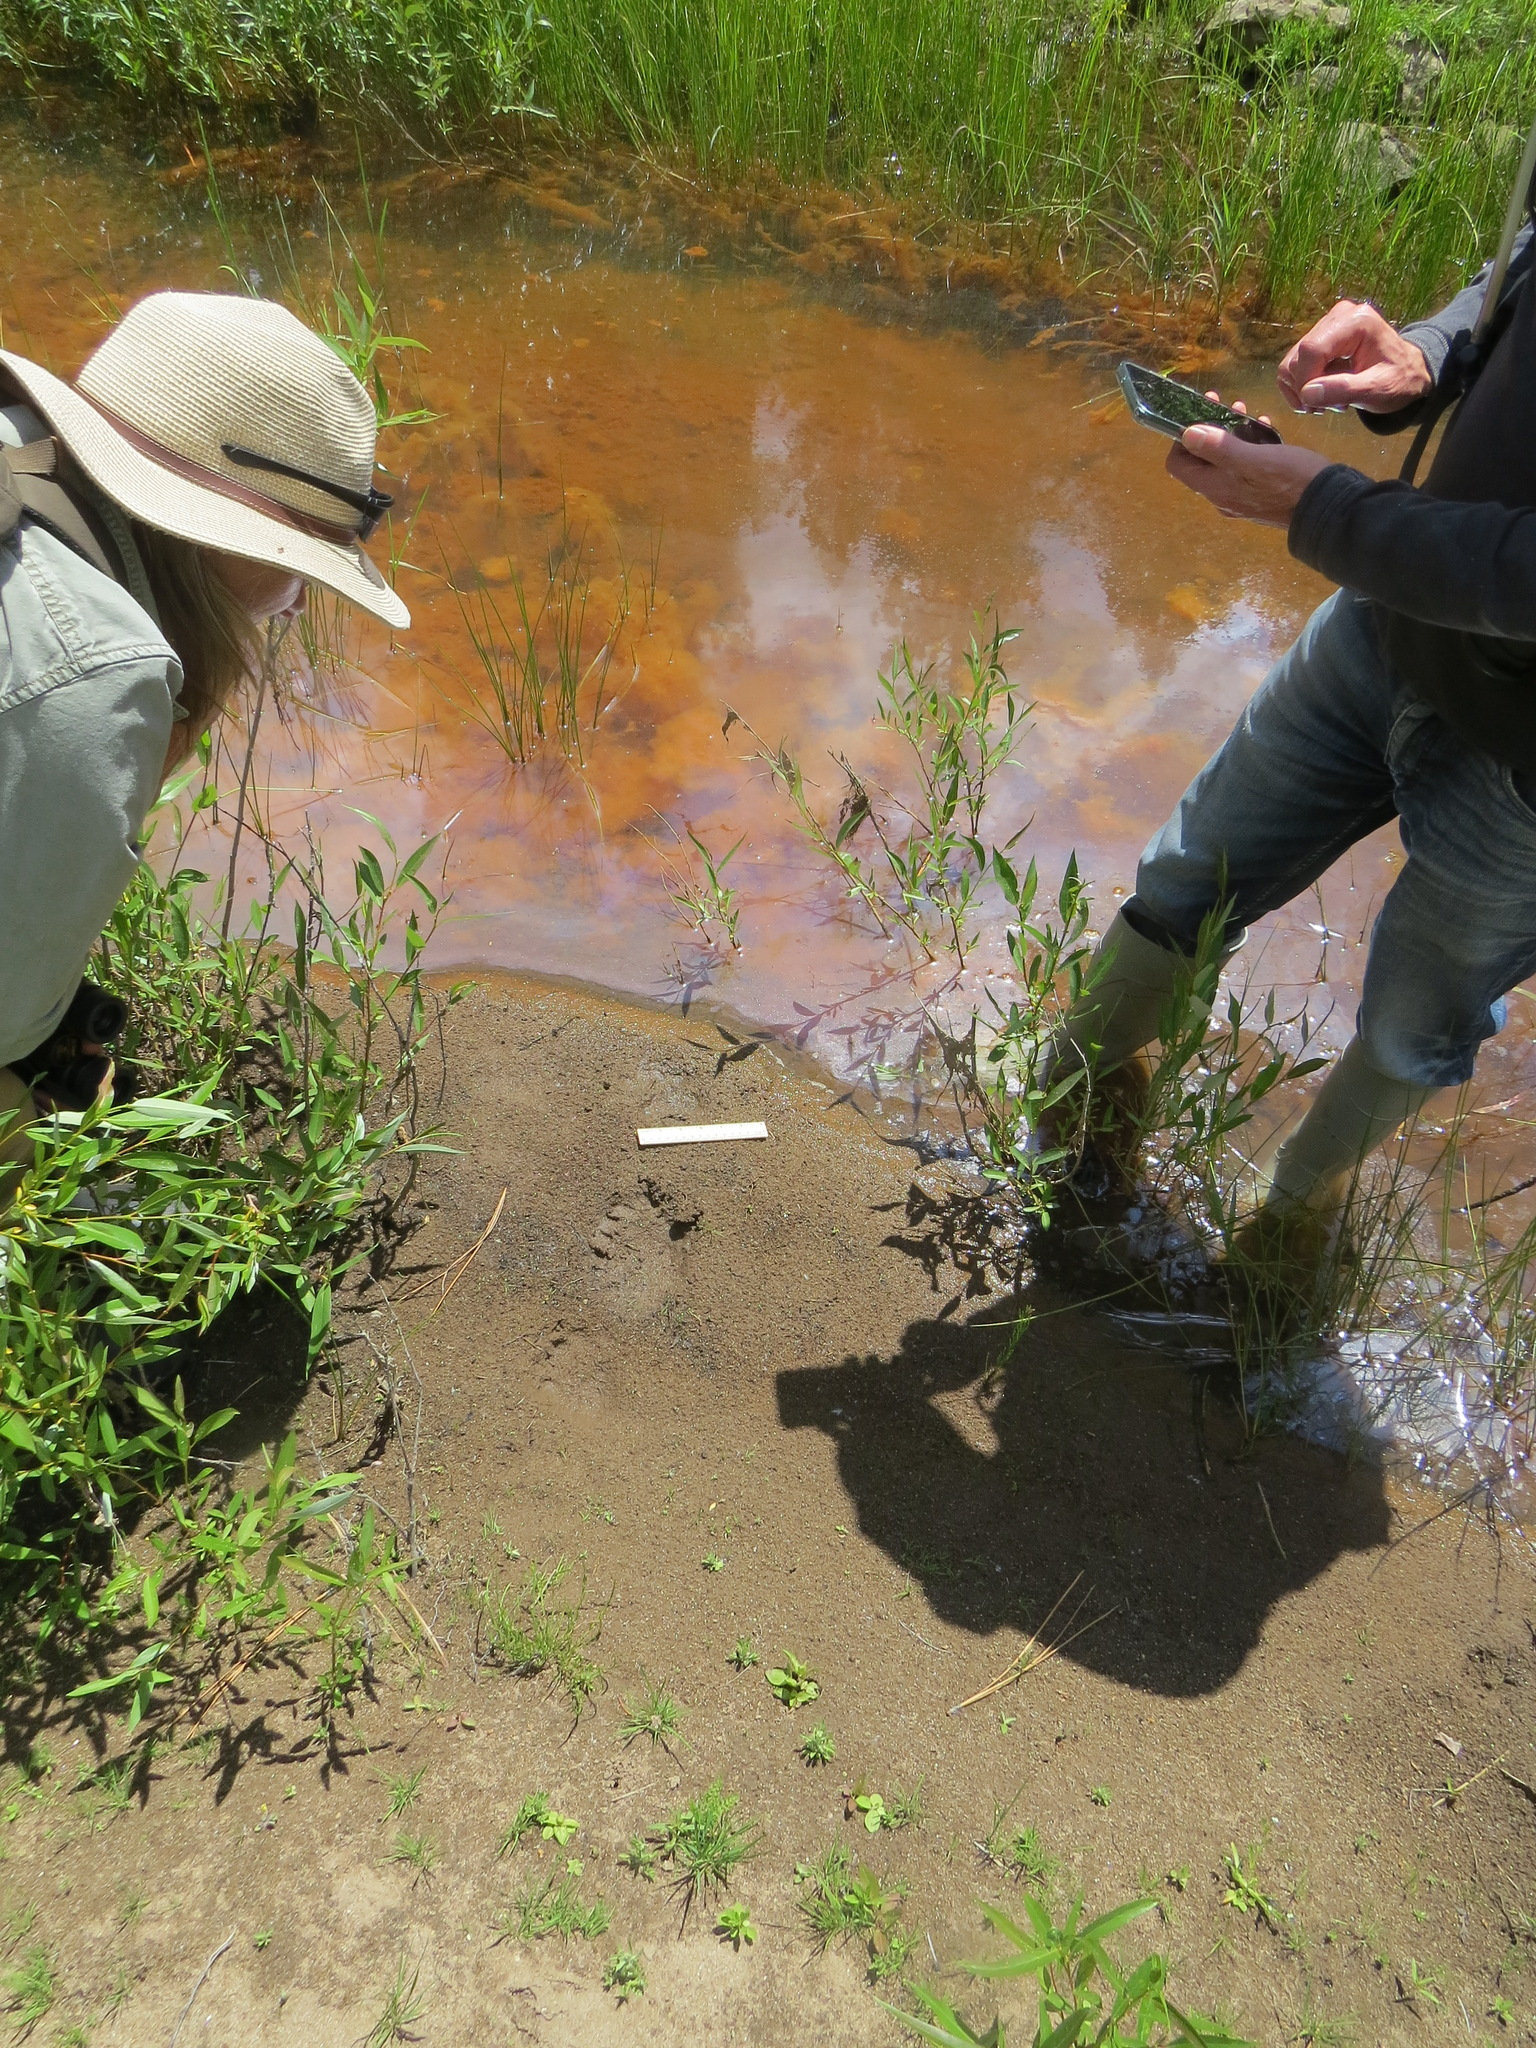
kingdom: Animalia
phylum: Chordata
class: Mammalia
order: Carnivora
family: Ursidae
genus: Ursus
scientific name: Ursus americanus
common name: American black bear
